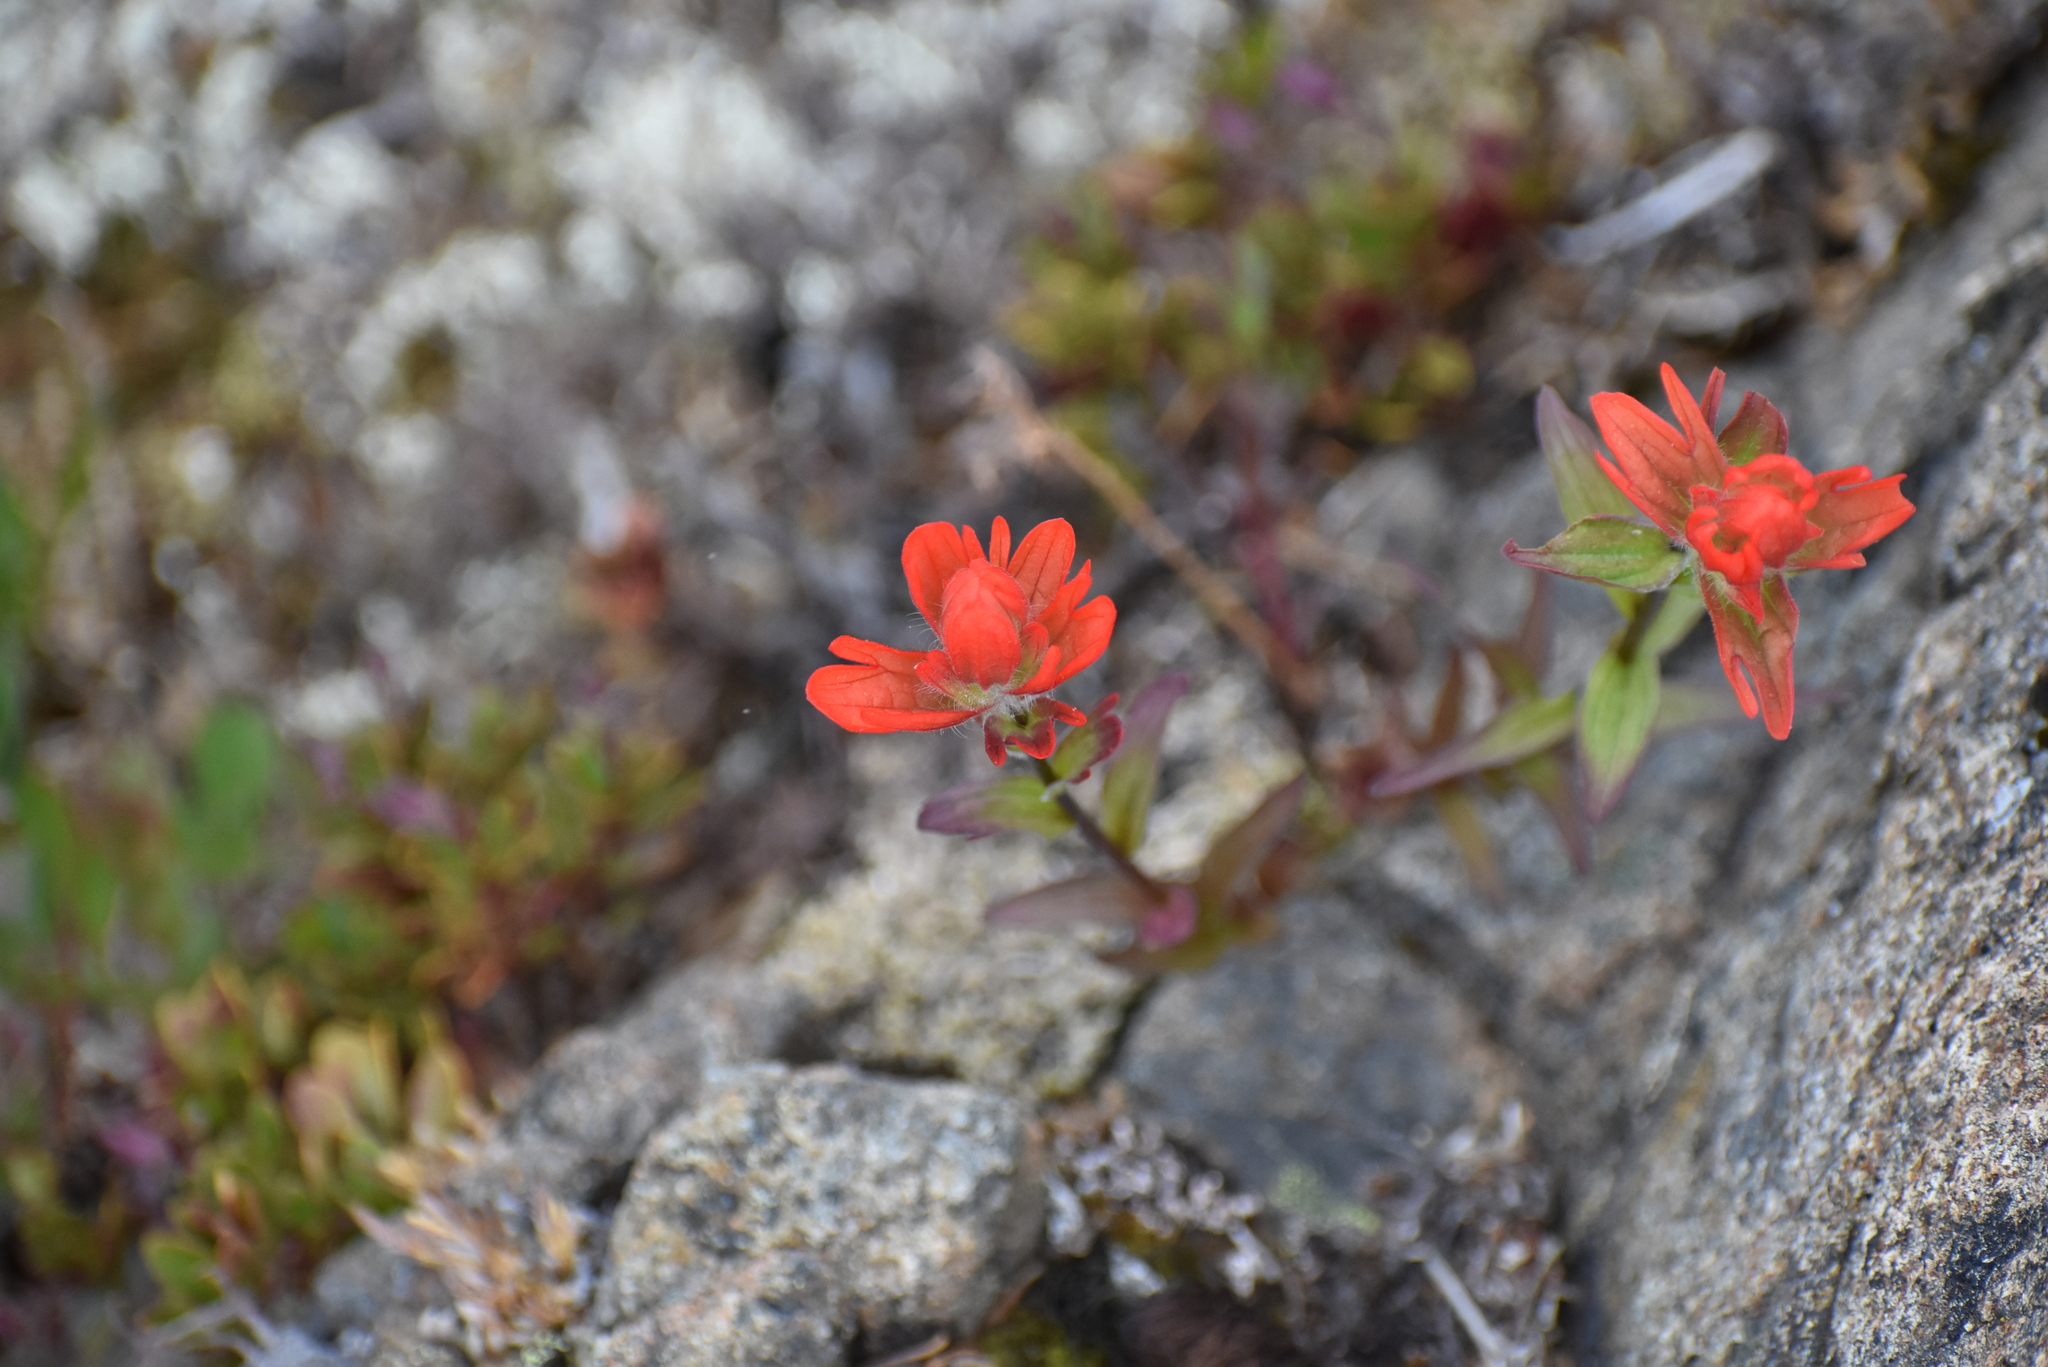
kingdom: Plantae
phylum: Tracheophyta
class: Magnoliopsida
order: Lamiales
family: Orobanchaceae
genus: Castilleja
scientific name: Castilleja hispida
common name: Bristly paintbrush
